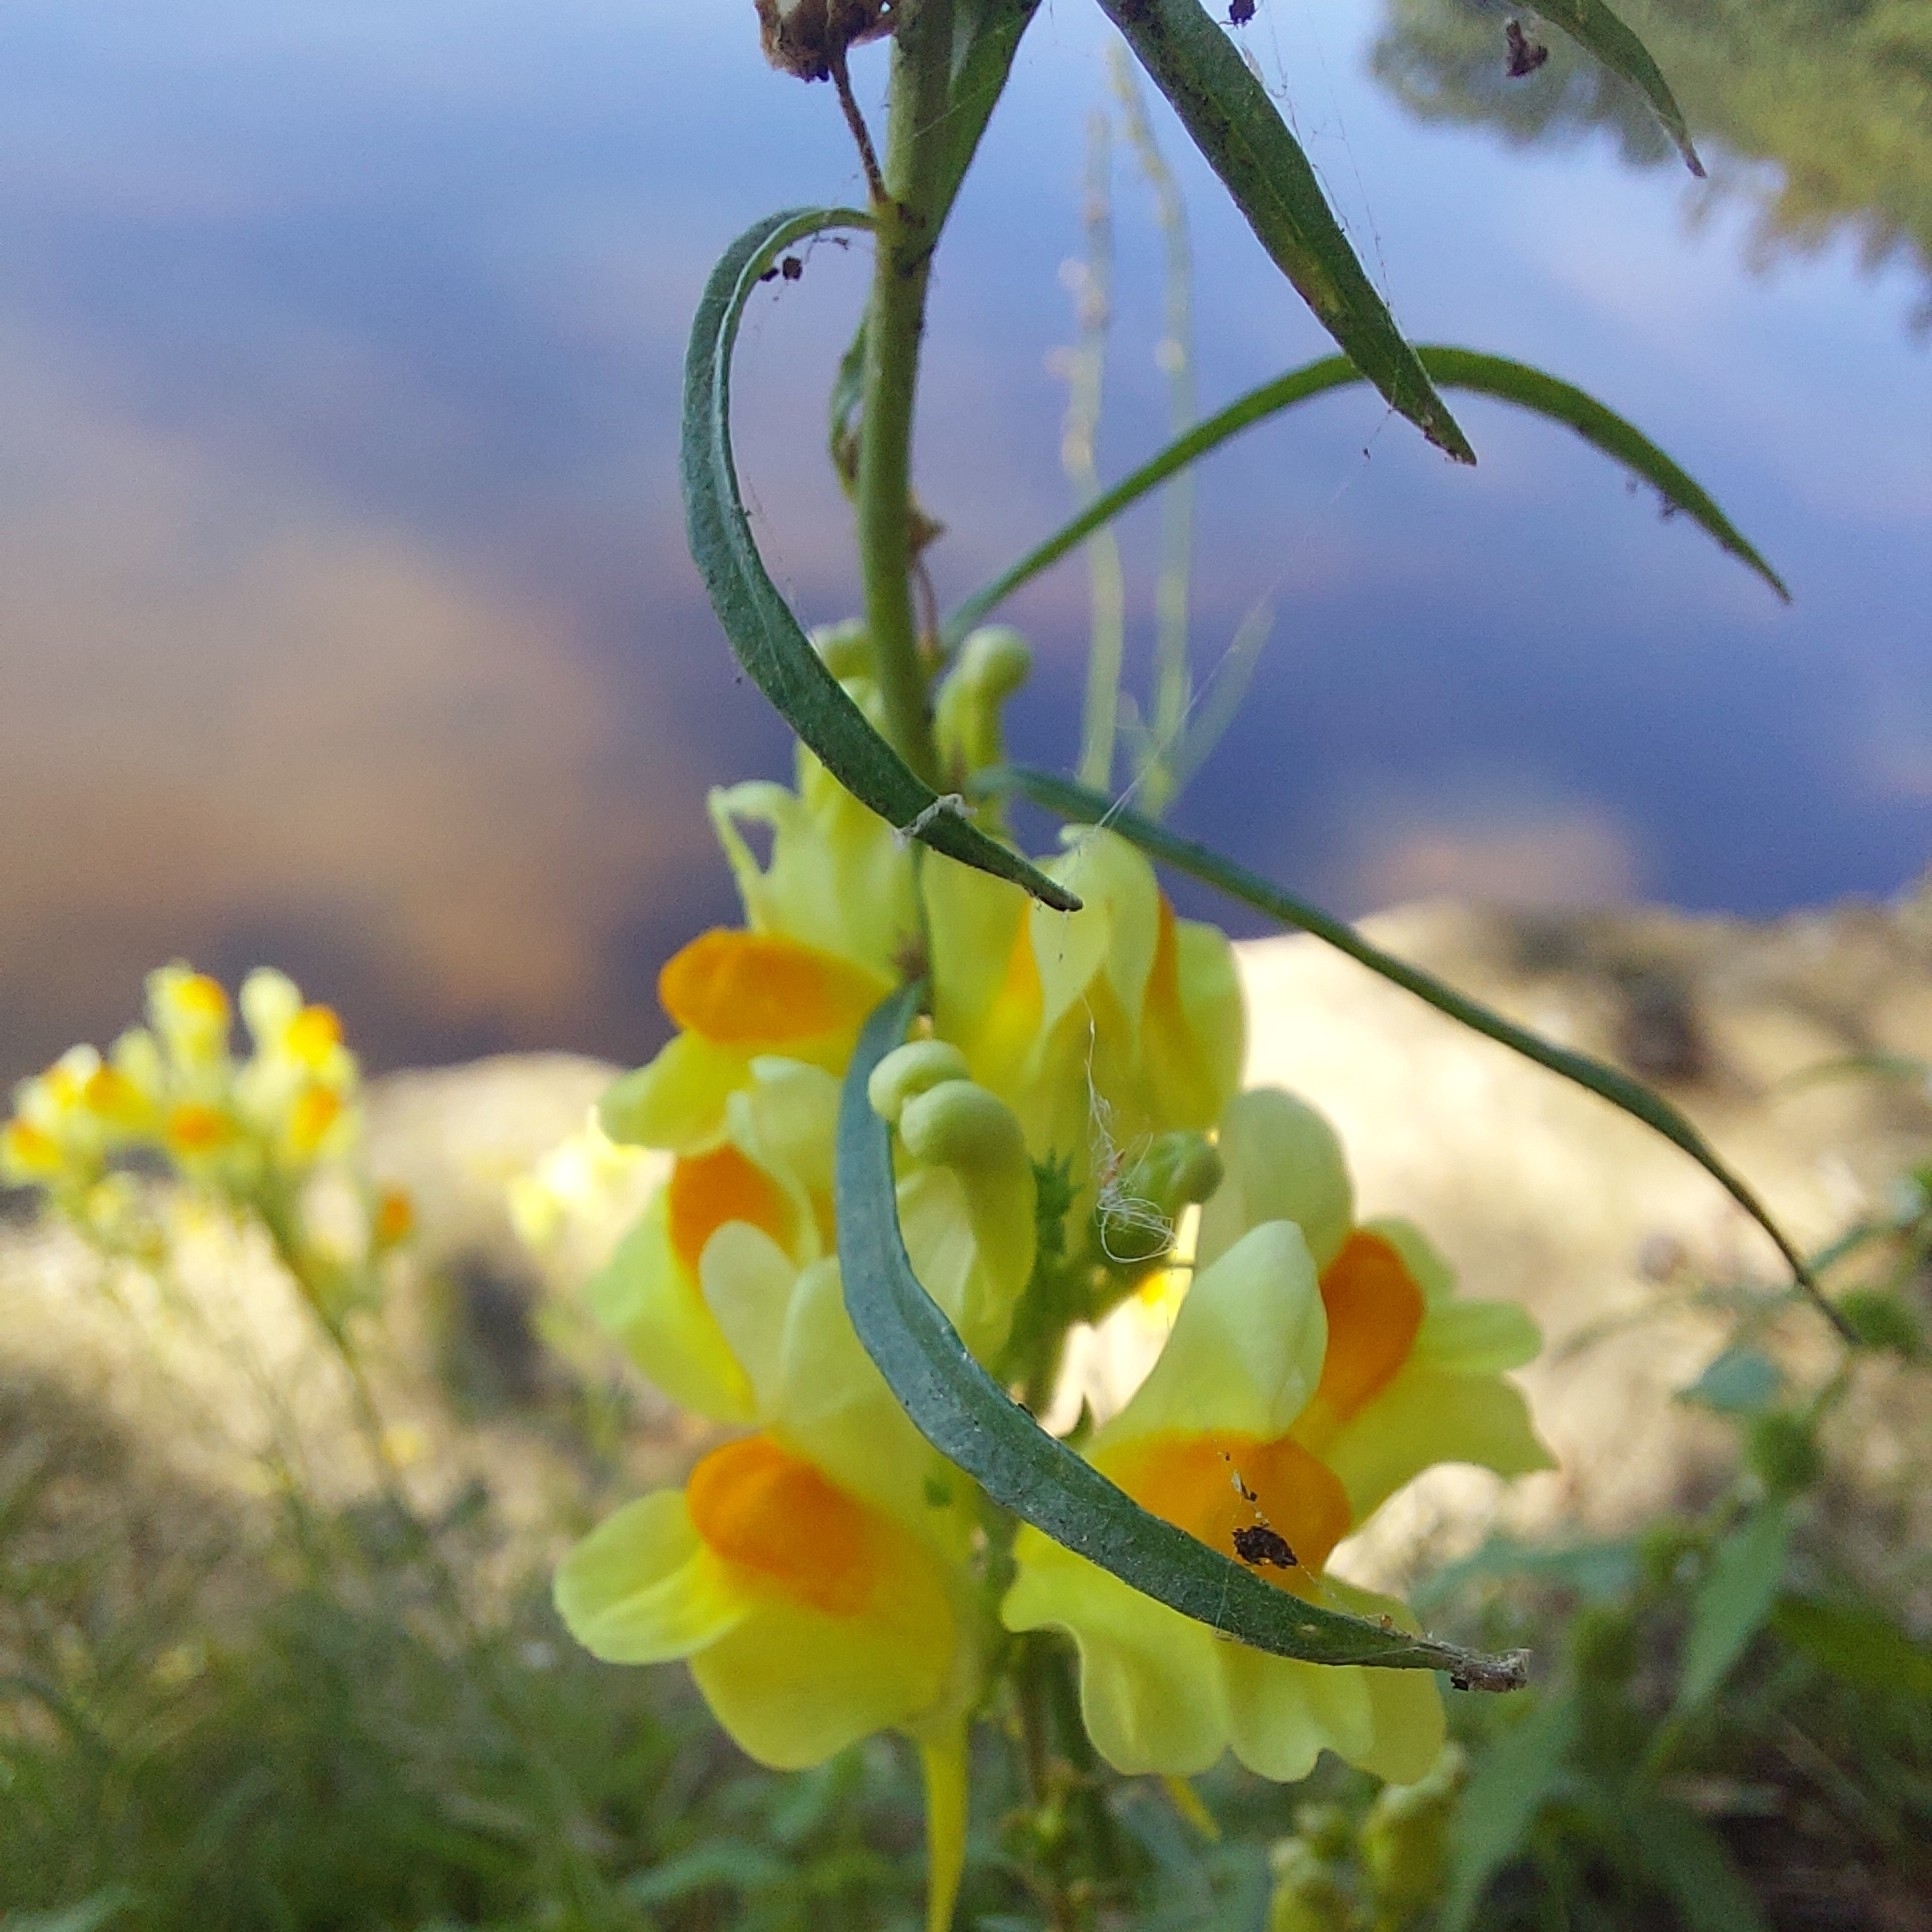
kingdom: Plantae
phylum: Tracheophyta
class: Magnoliopsida
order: Lamiales
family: Plantaginaceae
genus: Linaria
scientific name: Linaria vulgaris
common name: Butter and eggs
